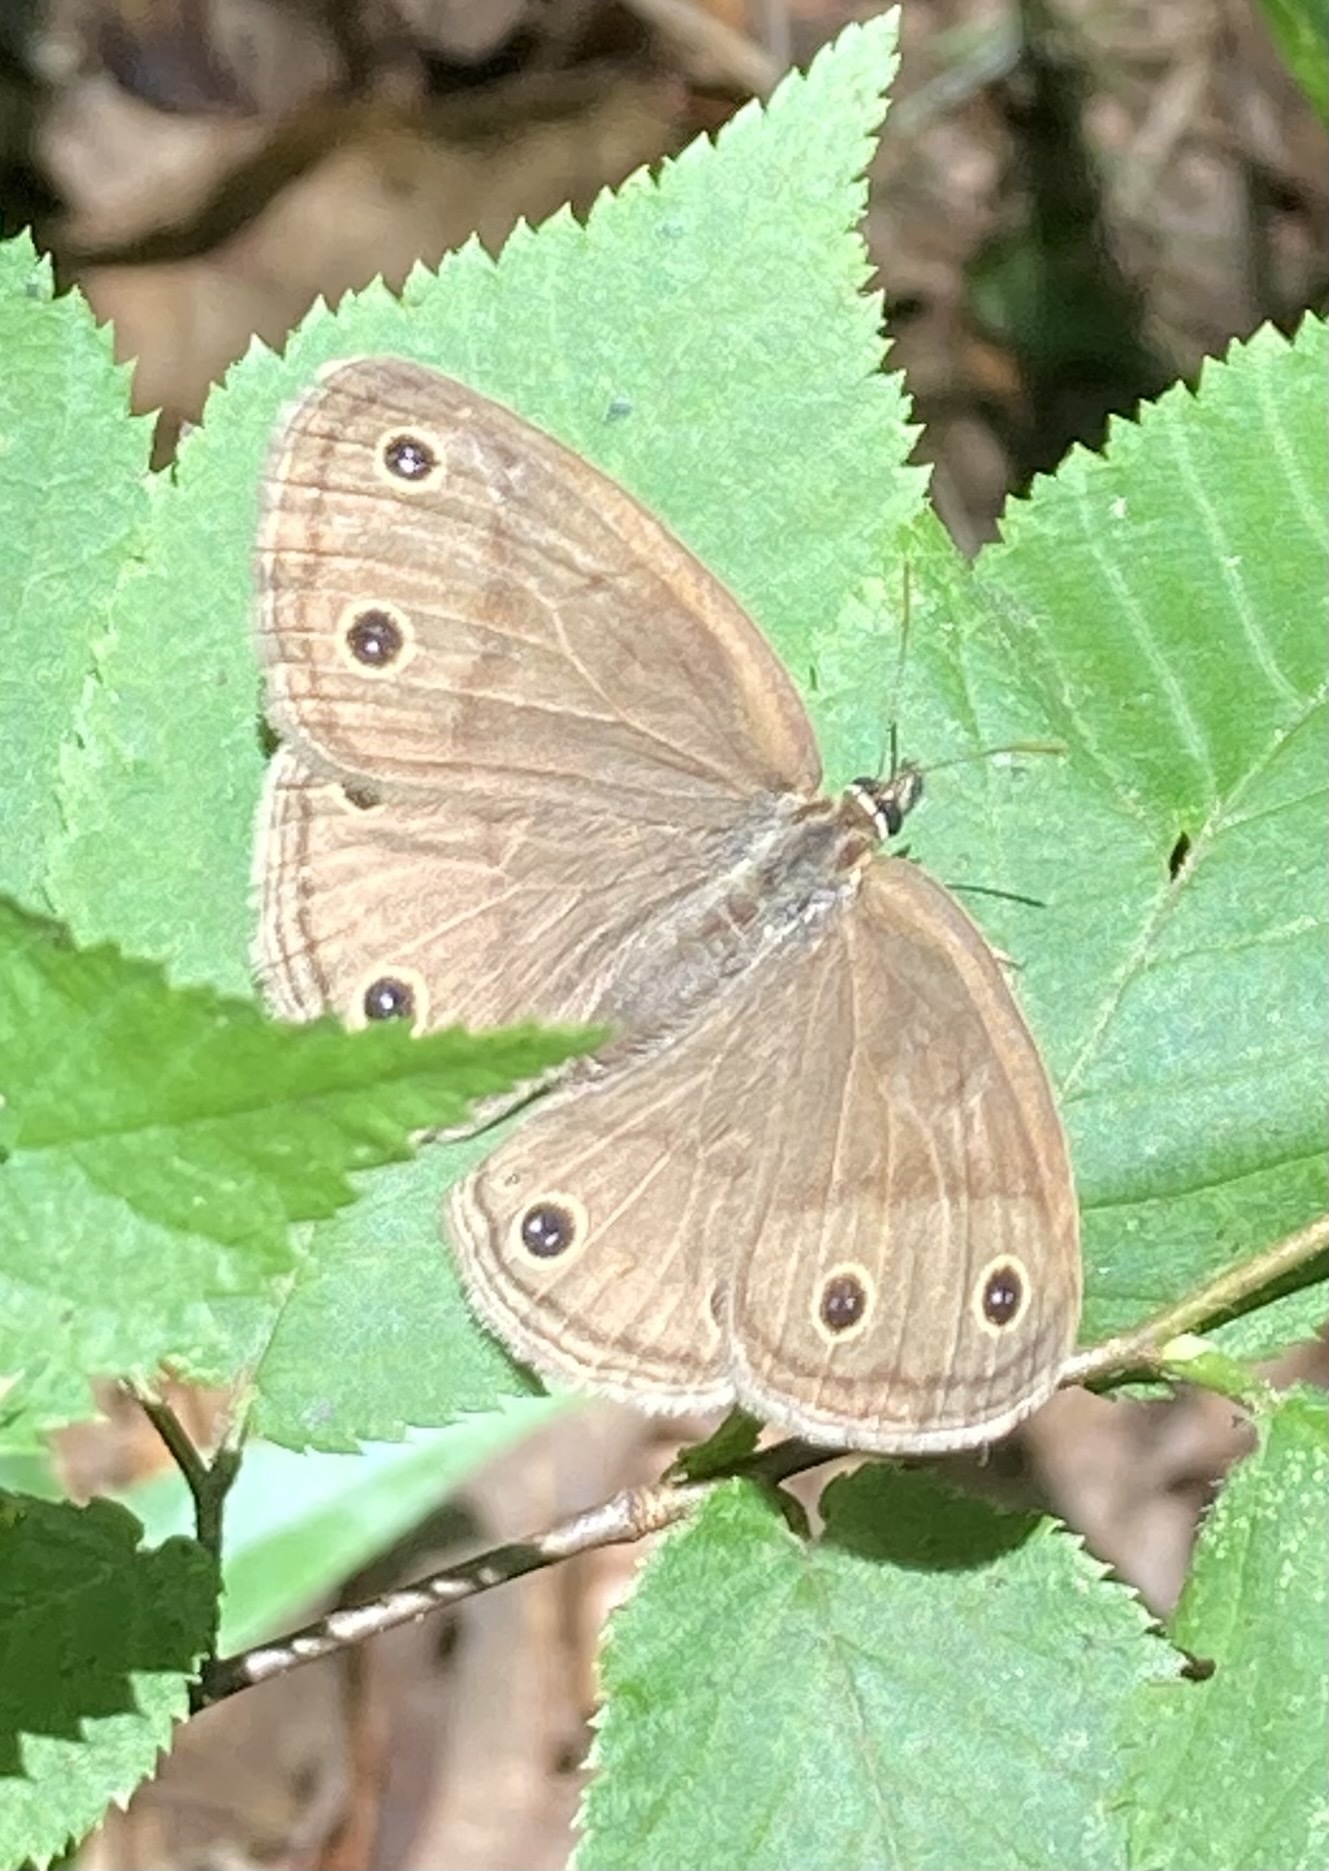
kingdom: Animalia
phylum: Arthropoda
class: Insecta
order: Lepidoptera
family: Nymphalidae
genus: Euptychia
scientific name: Euptychia cymela
